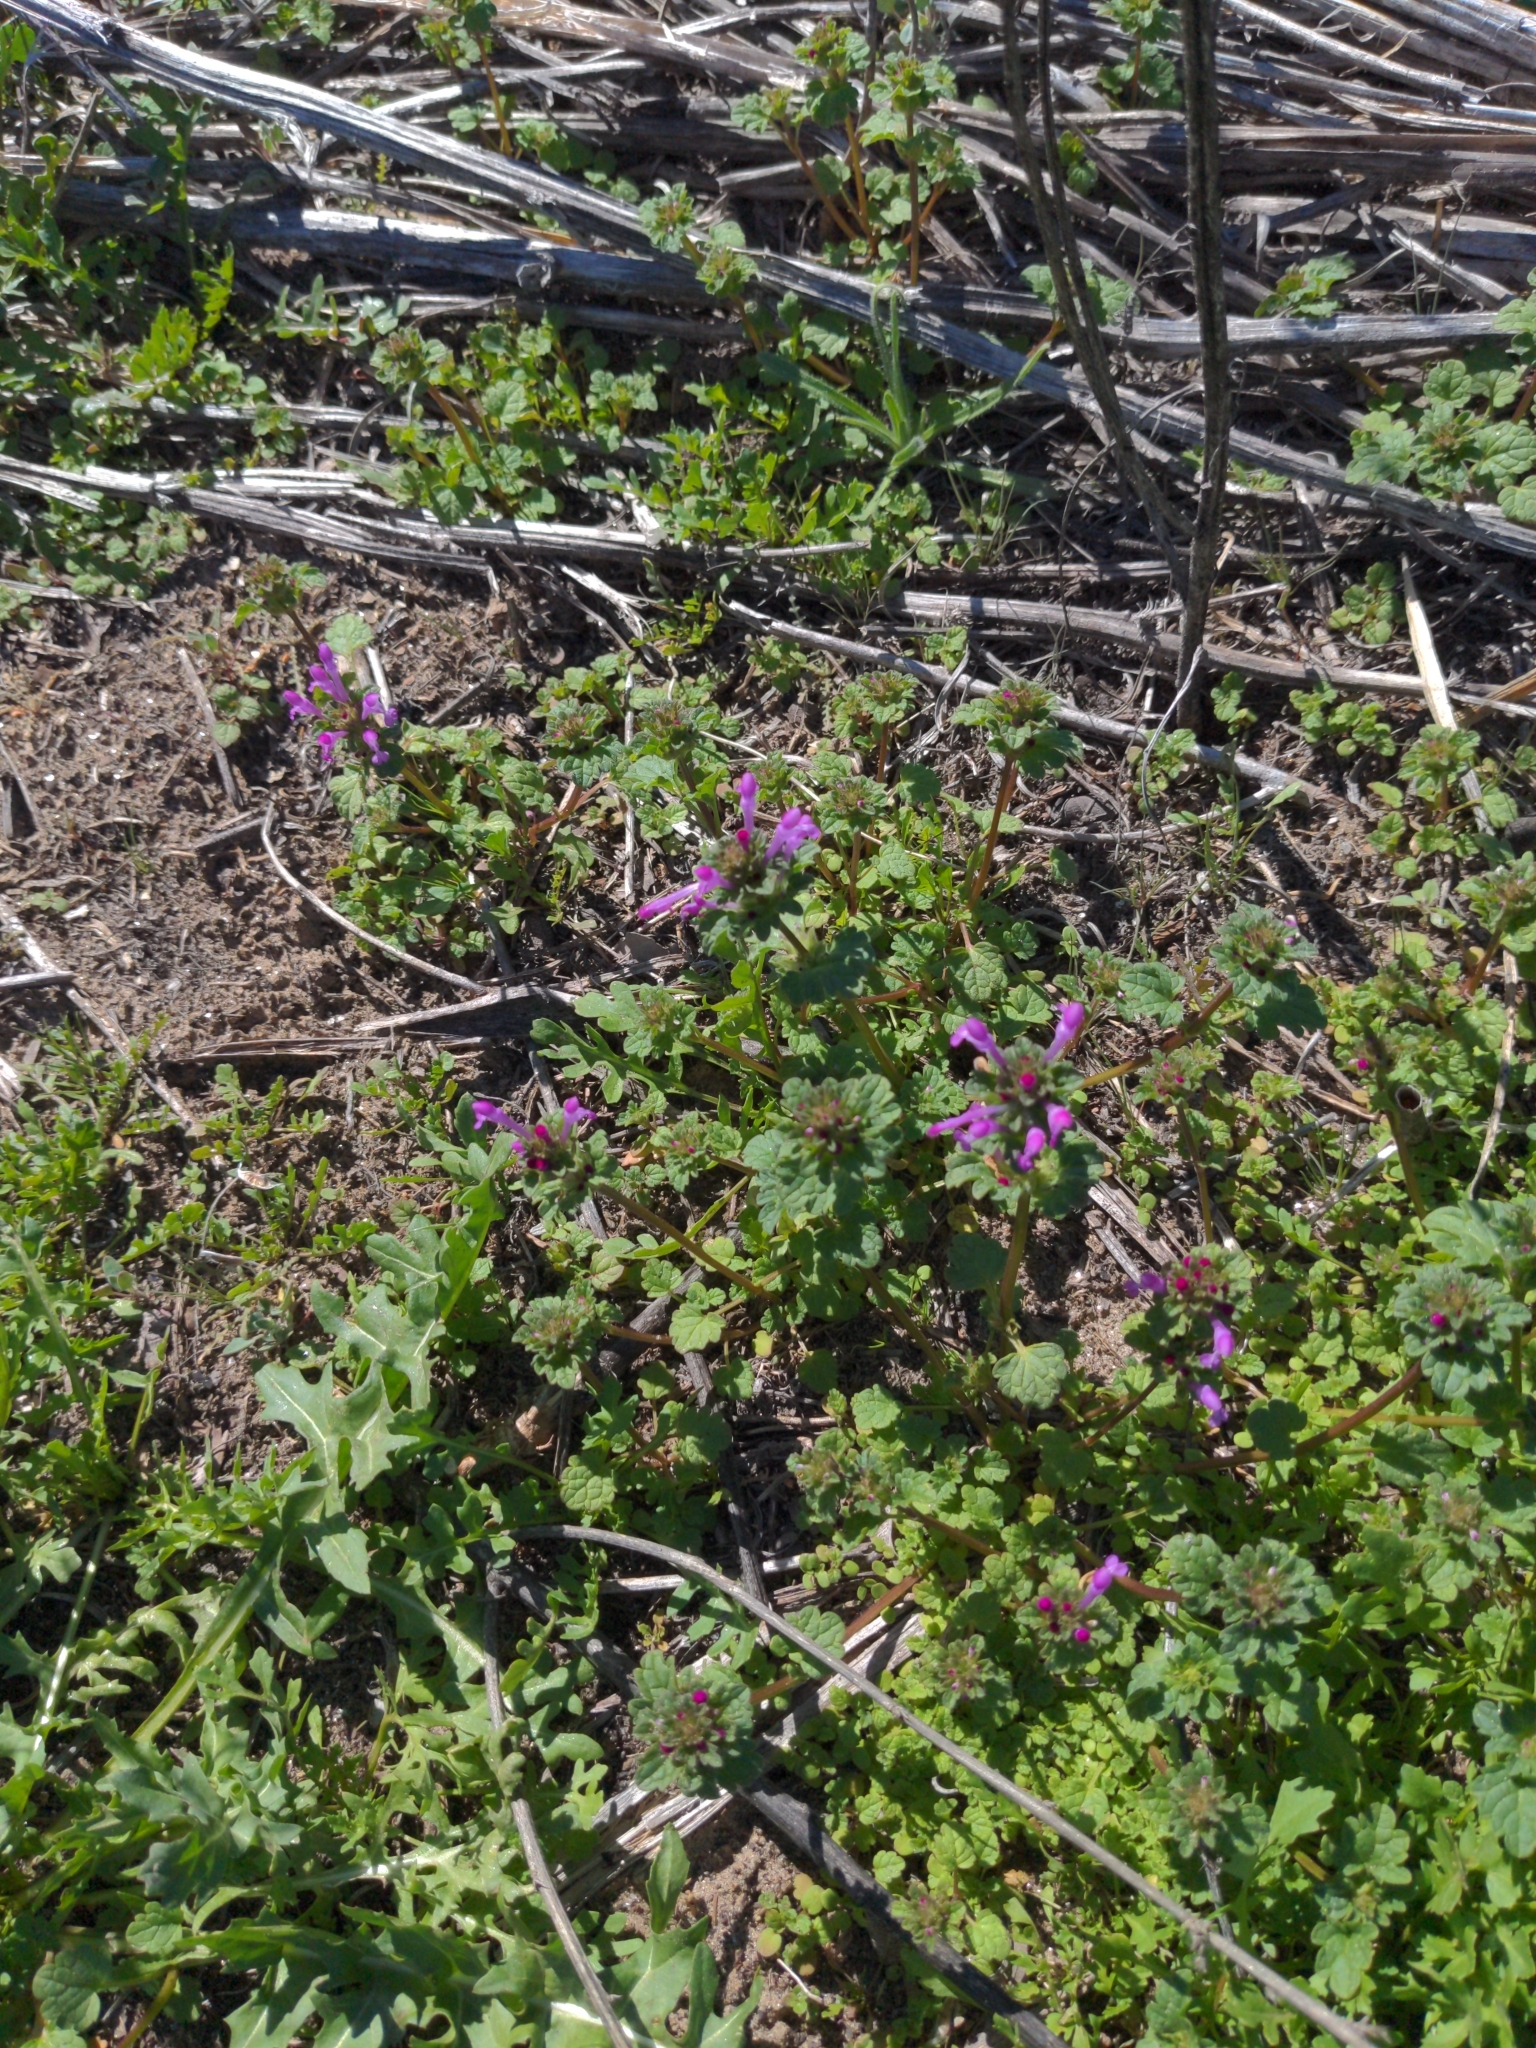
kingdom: Plantae
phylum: Tracheophyta
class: Magnoliopsida
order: Lamiales
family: Lamiaceae
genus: Lamium
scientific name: Lamium amplexicaule
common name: Henbit dead-nettle
